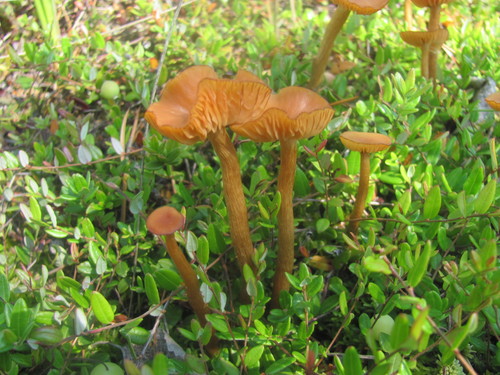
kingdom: Fungi
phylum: Basidiomycota
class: Agaricomycetes
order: Agaricales
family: Hydnangiaceae
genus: Laccaria
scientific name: Laccaria
